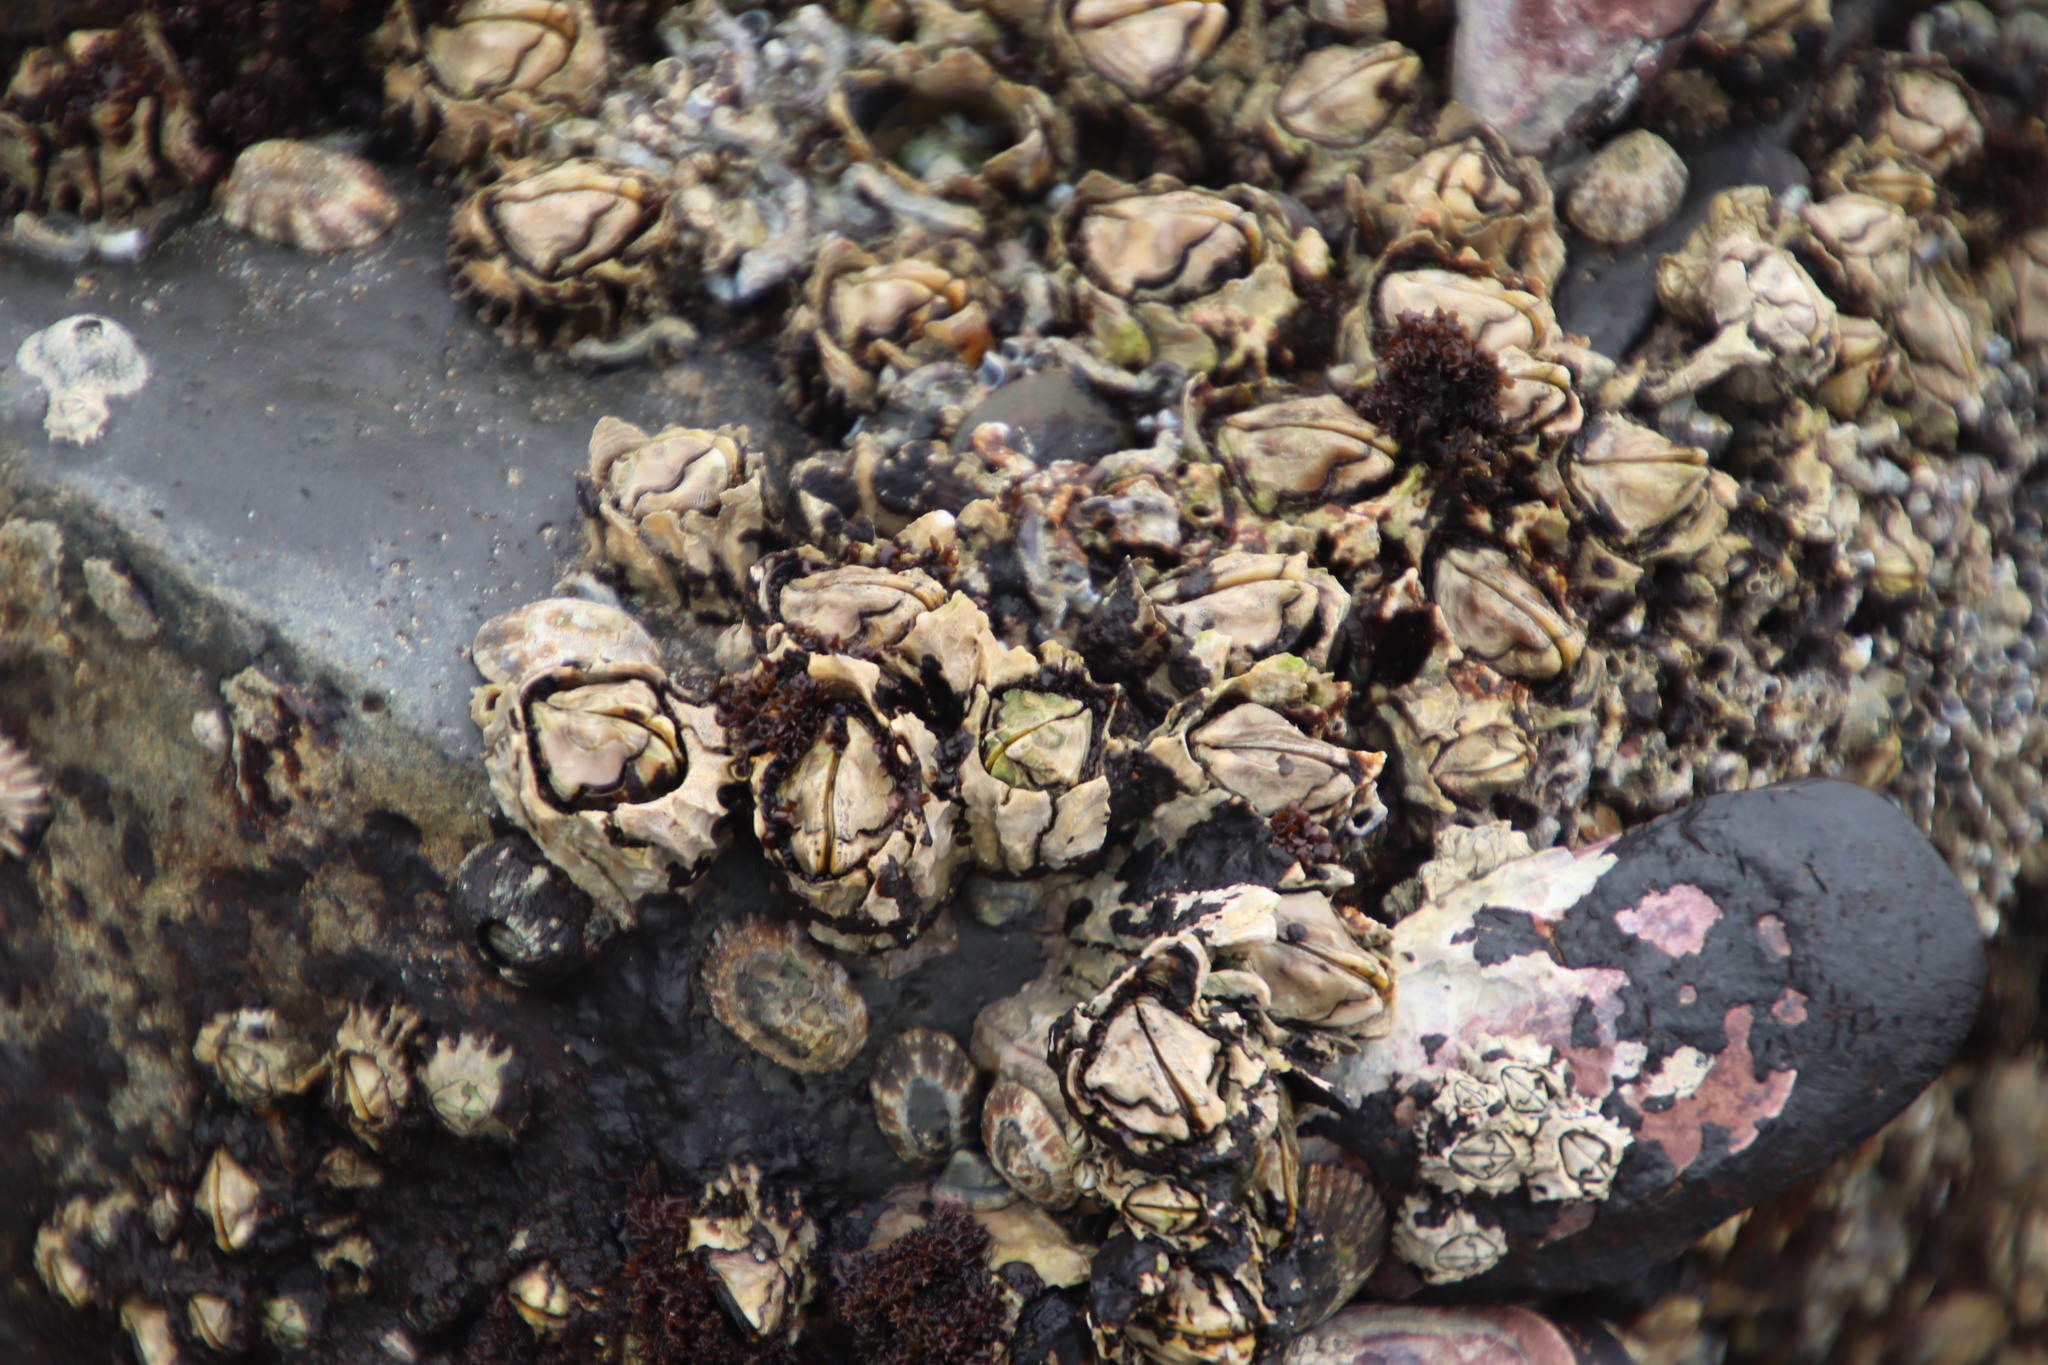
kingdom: Animalia
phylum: Arthropoda
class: Maxillopoda
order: Sessilia
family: Chthamalidae
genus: Octomeris
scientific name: Octomeris angulosa
